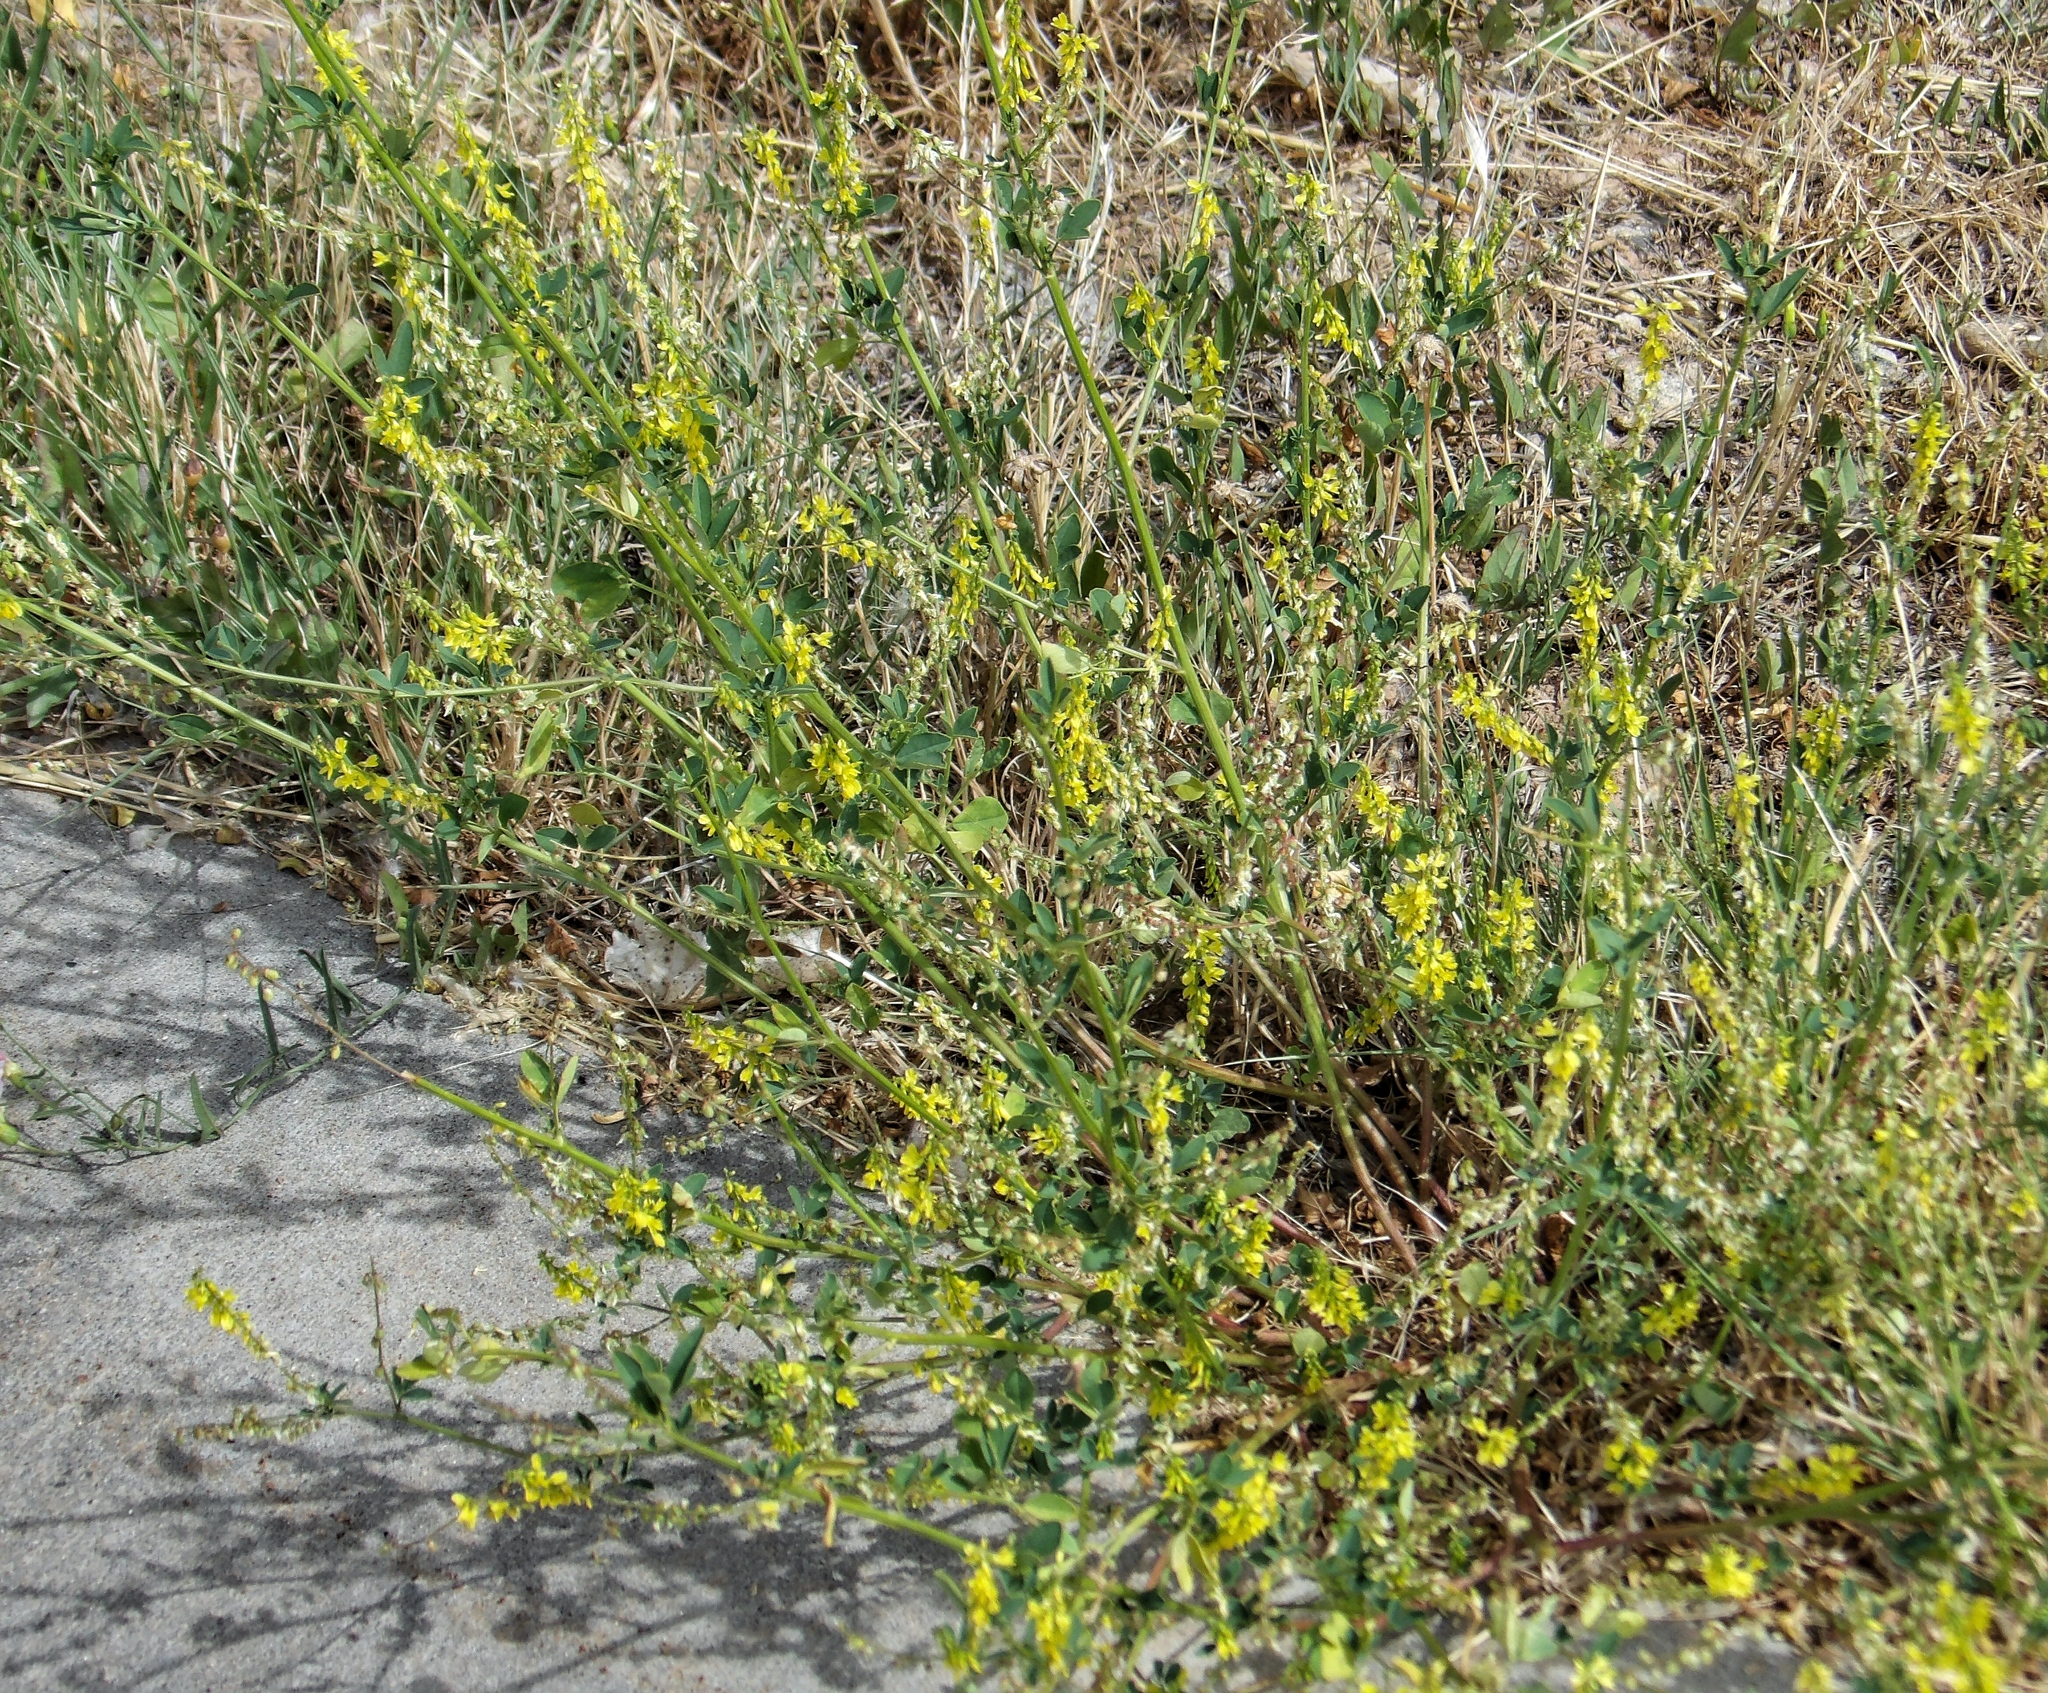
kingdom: Plantae
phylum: Tracheophyta
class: Magnoliopsida
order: Fabales
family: Fabaceae
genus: Melilotus
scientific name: Melilotus officinalis
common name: Sweetclover
